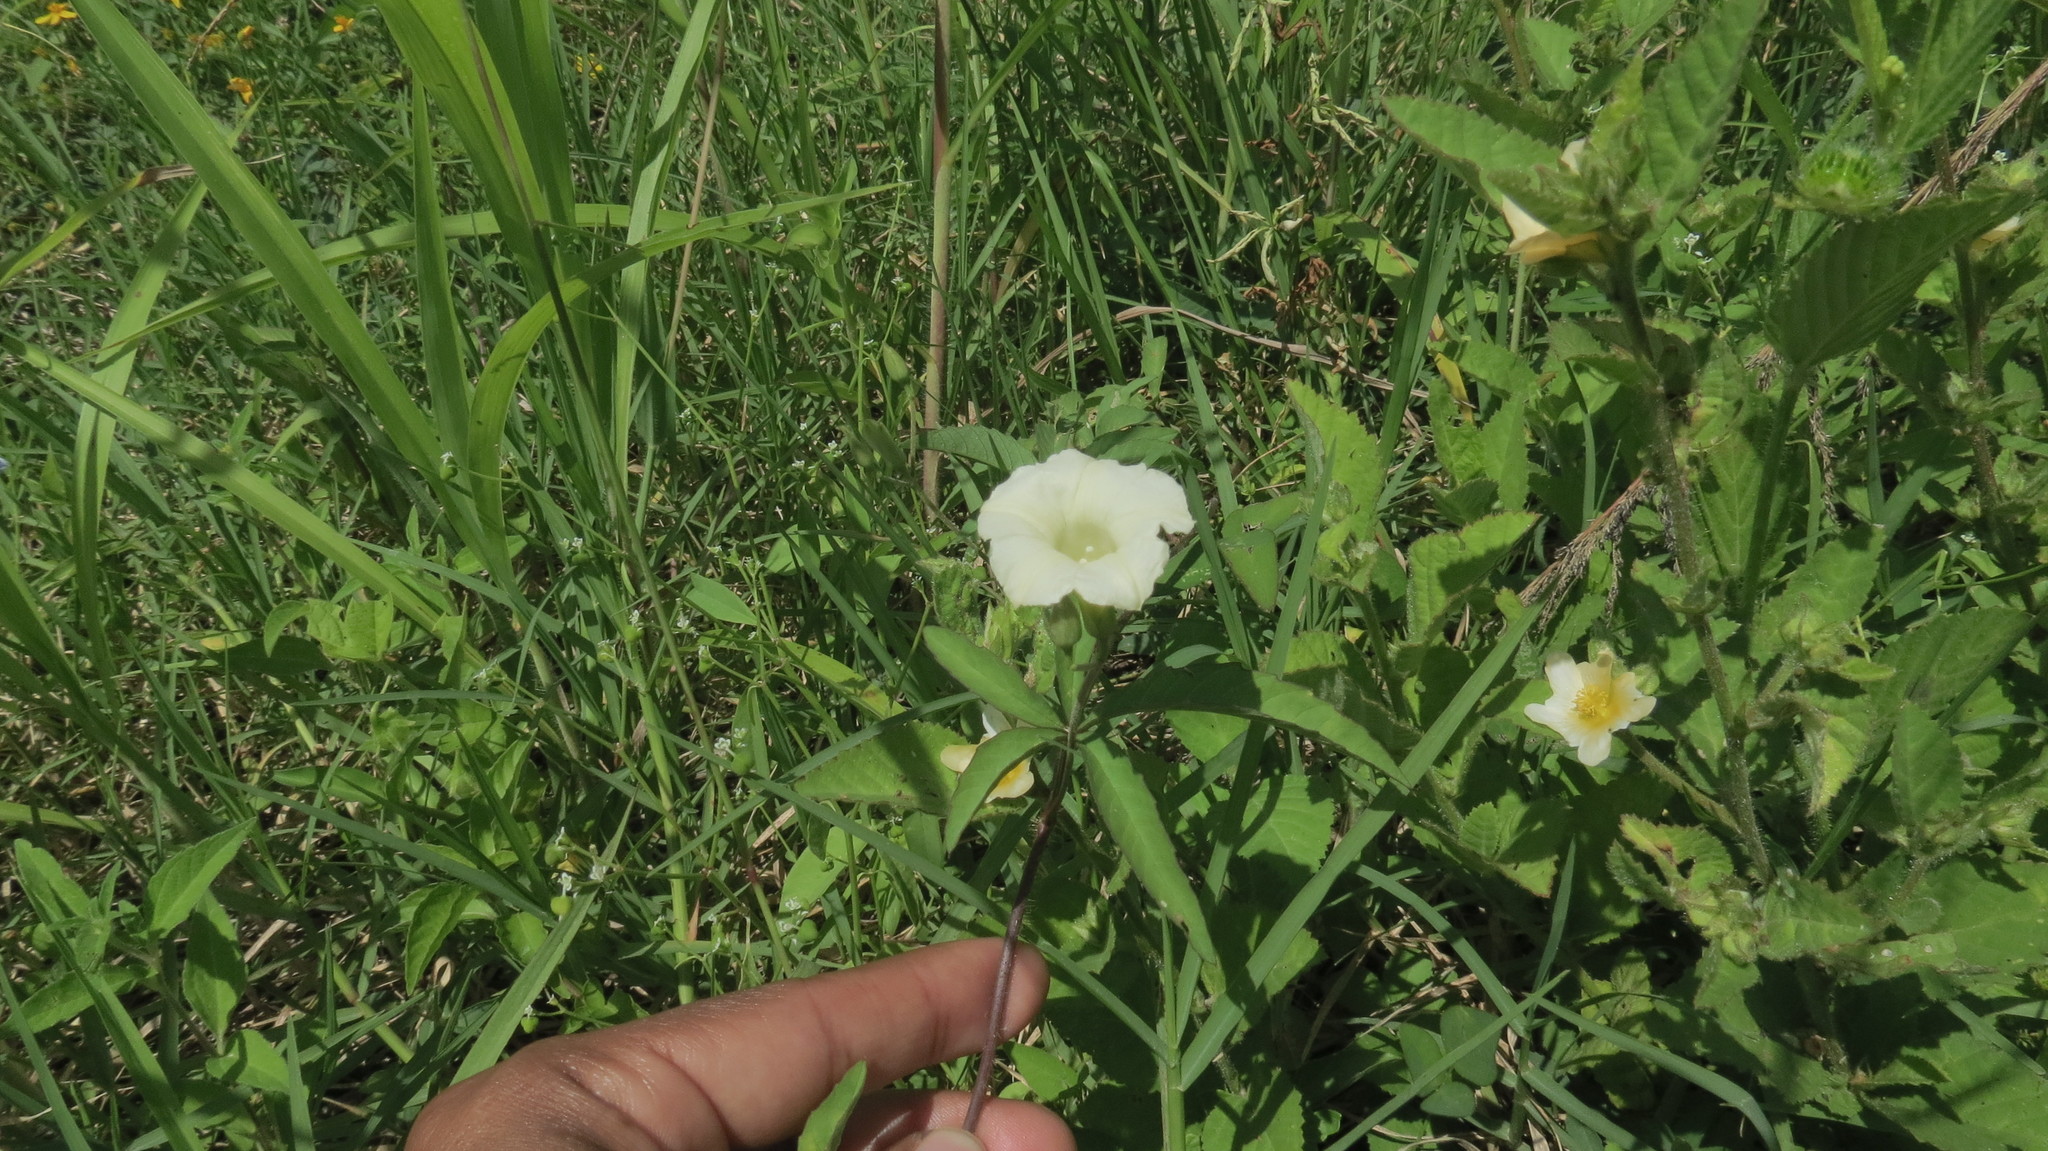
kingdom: Plantae
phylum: Tracheophyta
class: Magnoliopsida
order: Solanales
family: Convolvulaceae
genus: Distimake
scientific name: Distimake quinquefolius
